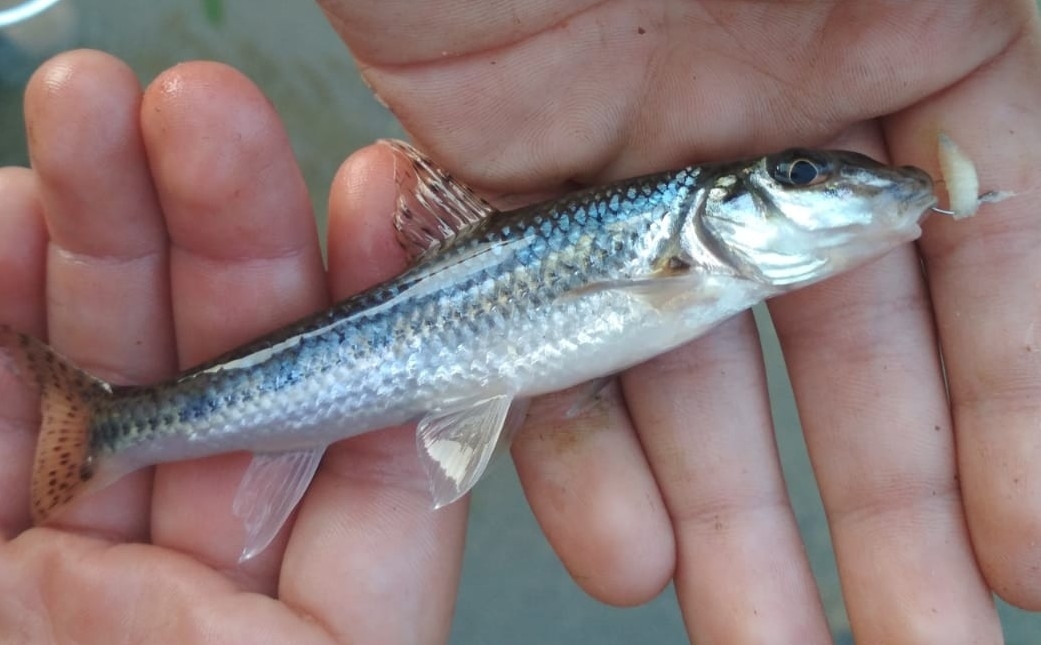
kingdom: Animalia
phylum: Chordata
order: Cypriniformes
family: Cyprinidae
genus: Gobio
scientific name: Gobio gobio
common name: Gudgeon
